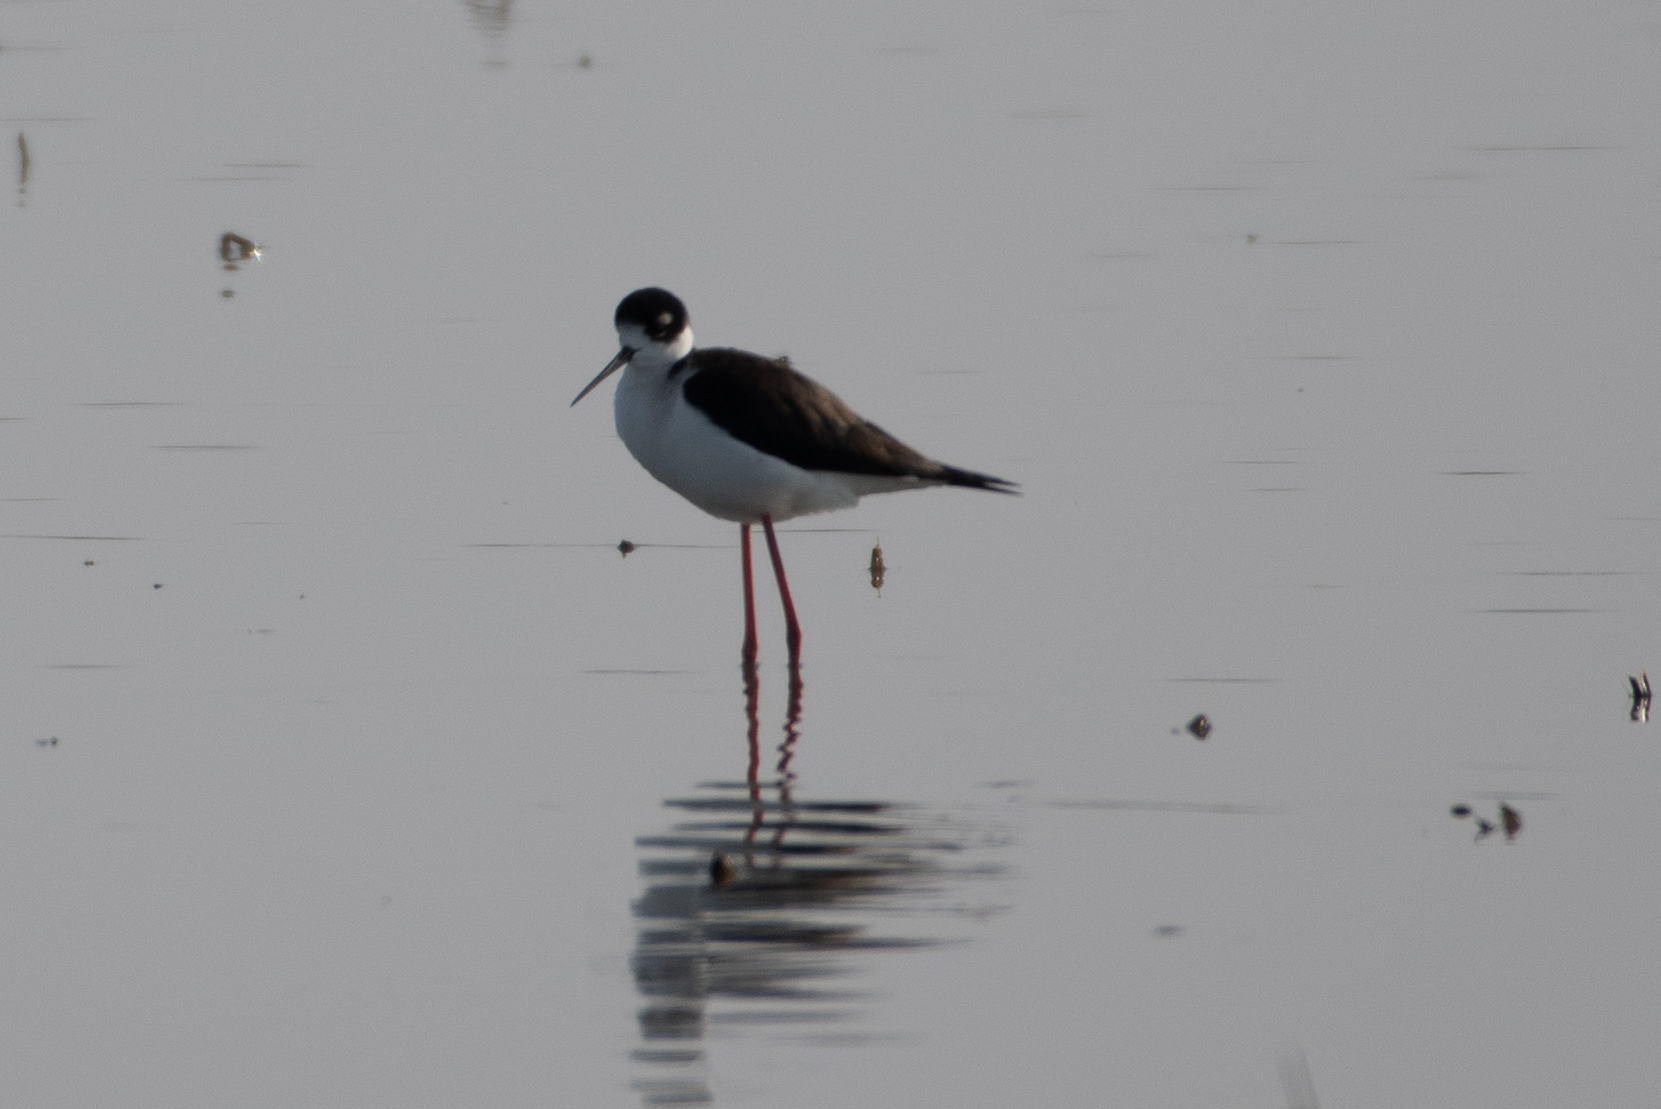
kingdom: Animalia
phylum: Chordata
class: Aves
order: Charadriiformes
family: Recurvirostridae
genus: Himantopus
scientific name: Himantopus mexicanus
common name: Black-necked stilt
